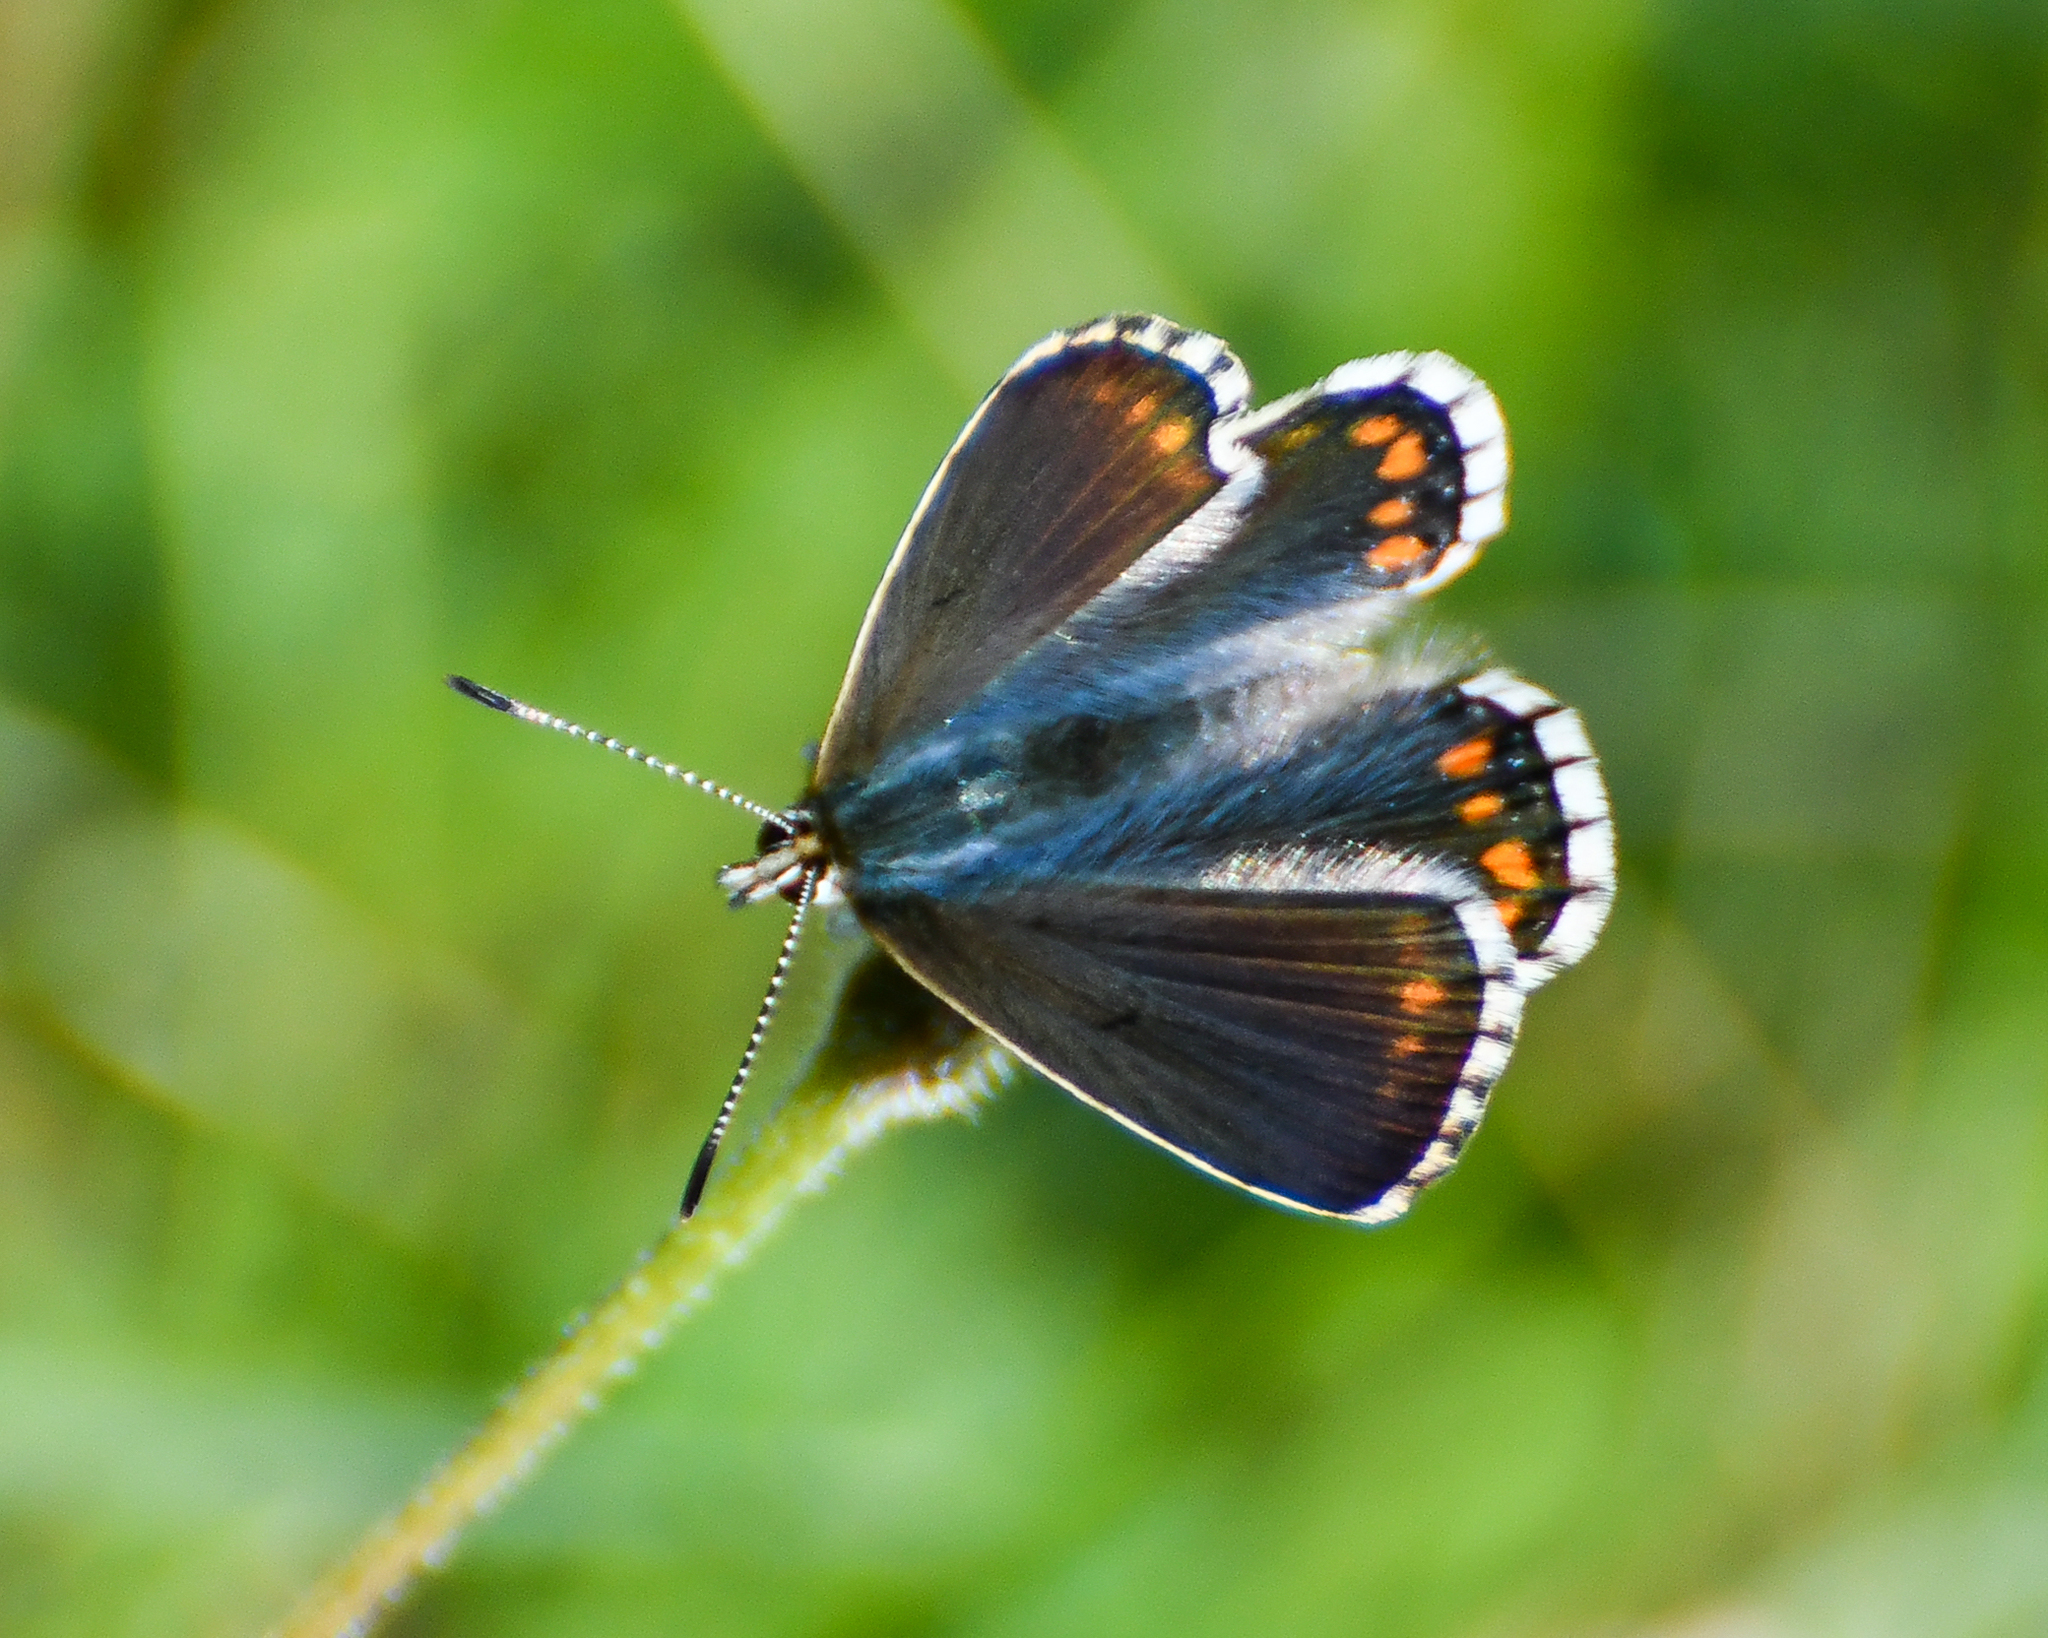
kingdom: Animalia
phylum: Arthropoda
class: Insecta
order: Lepidoptera
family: Lycaenidae
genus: Lysandra
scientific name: Lysandra bellargus
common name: Adonis blue
